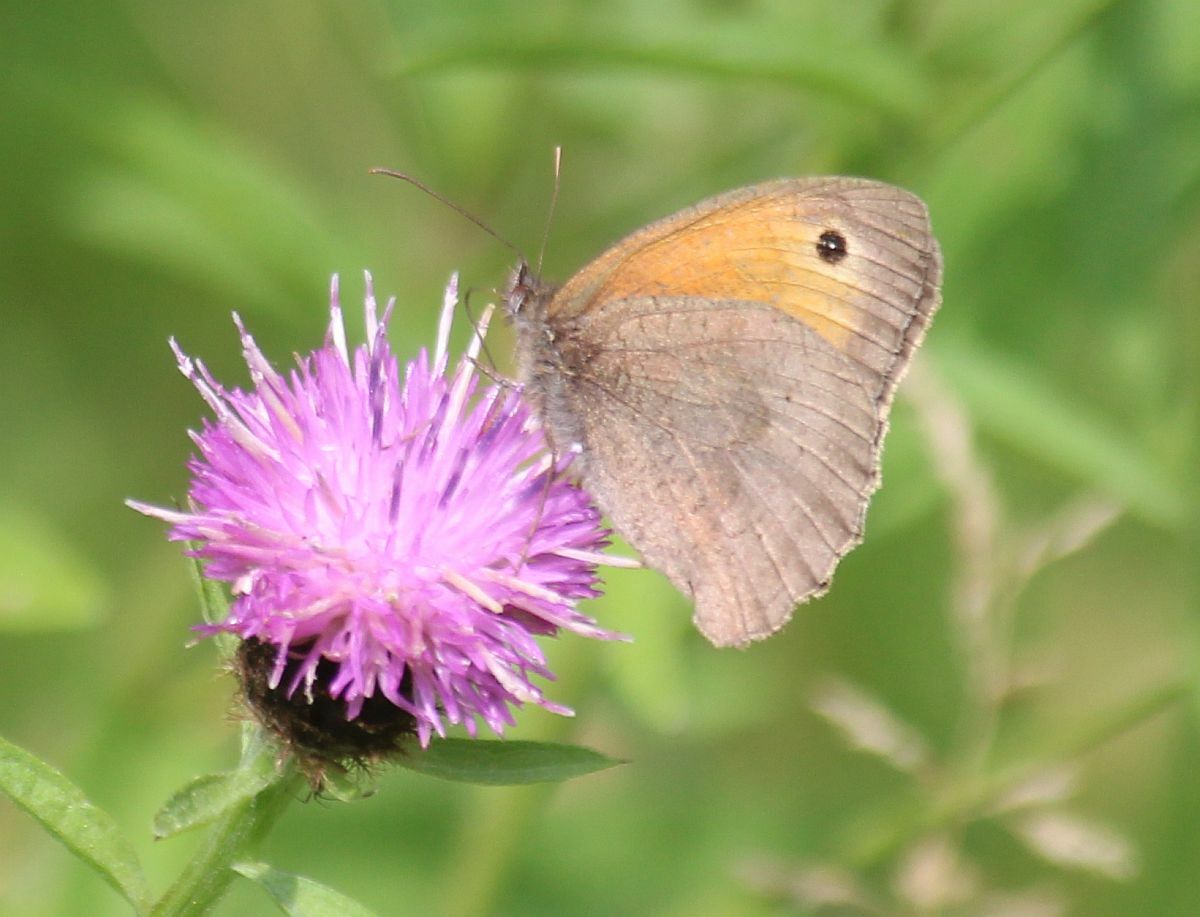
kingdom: Animalia
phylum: Arthropoda
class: Insecta
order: Lepidoptera
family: Nymphalidae
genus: Maniola
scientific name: Maniola jurtina
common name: Meadow brown
